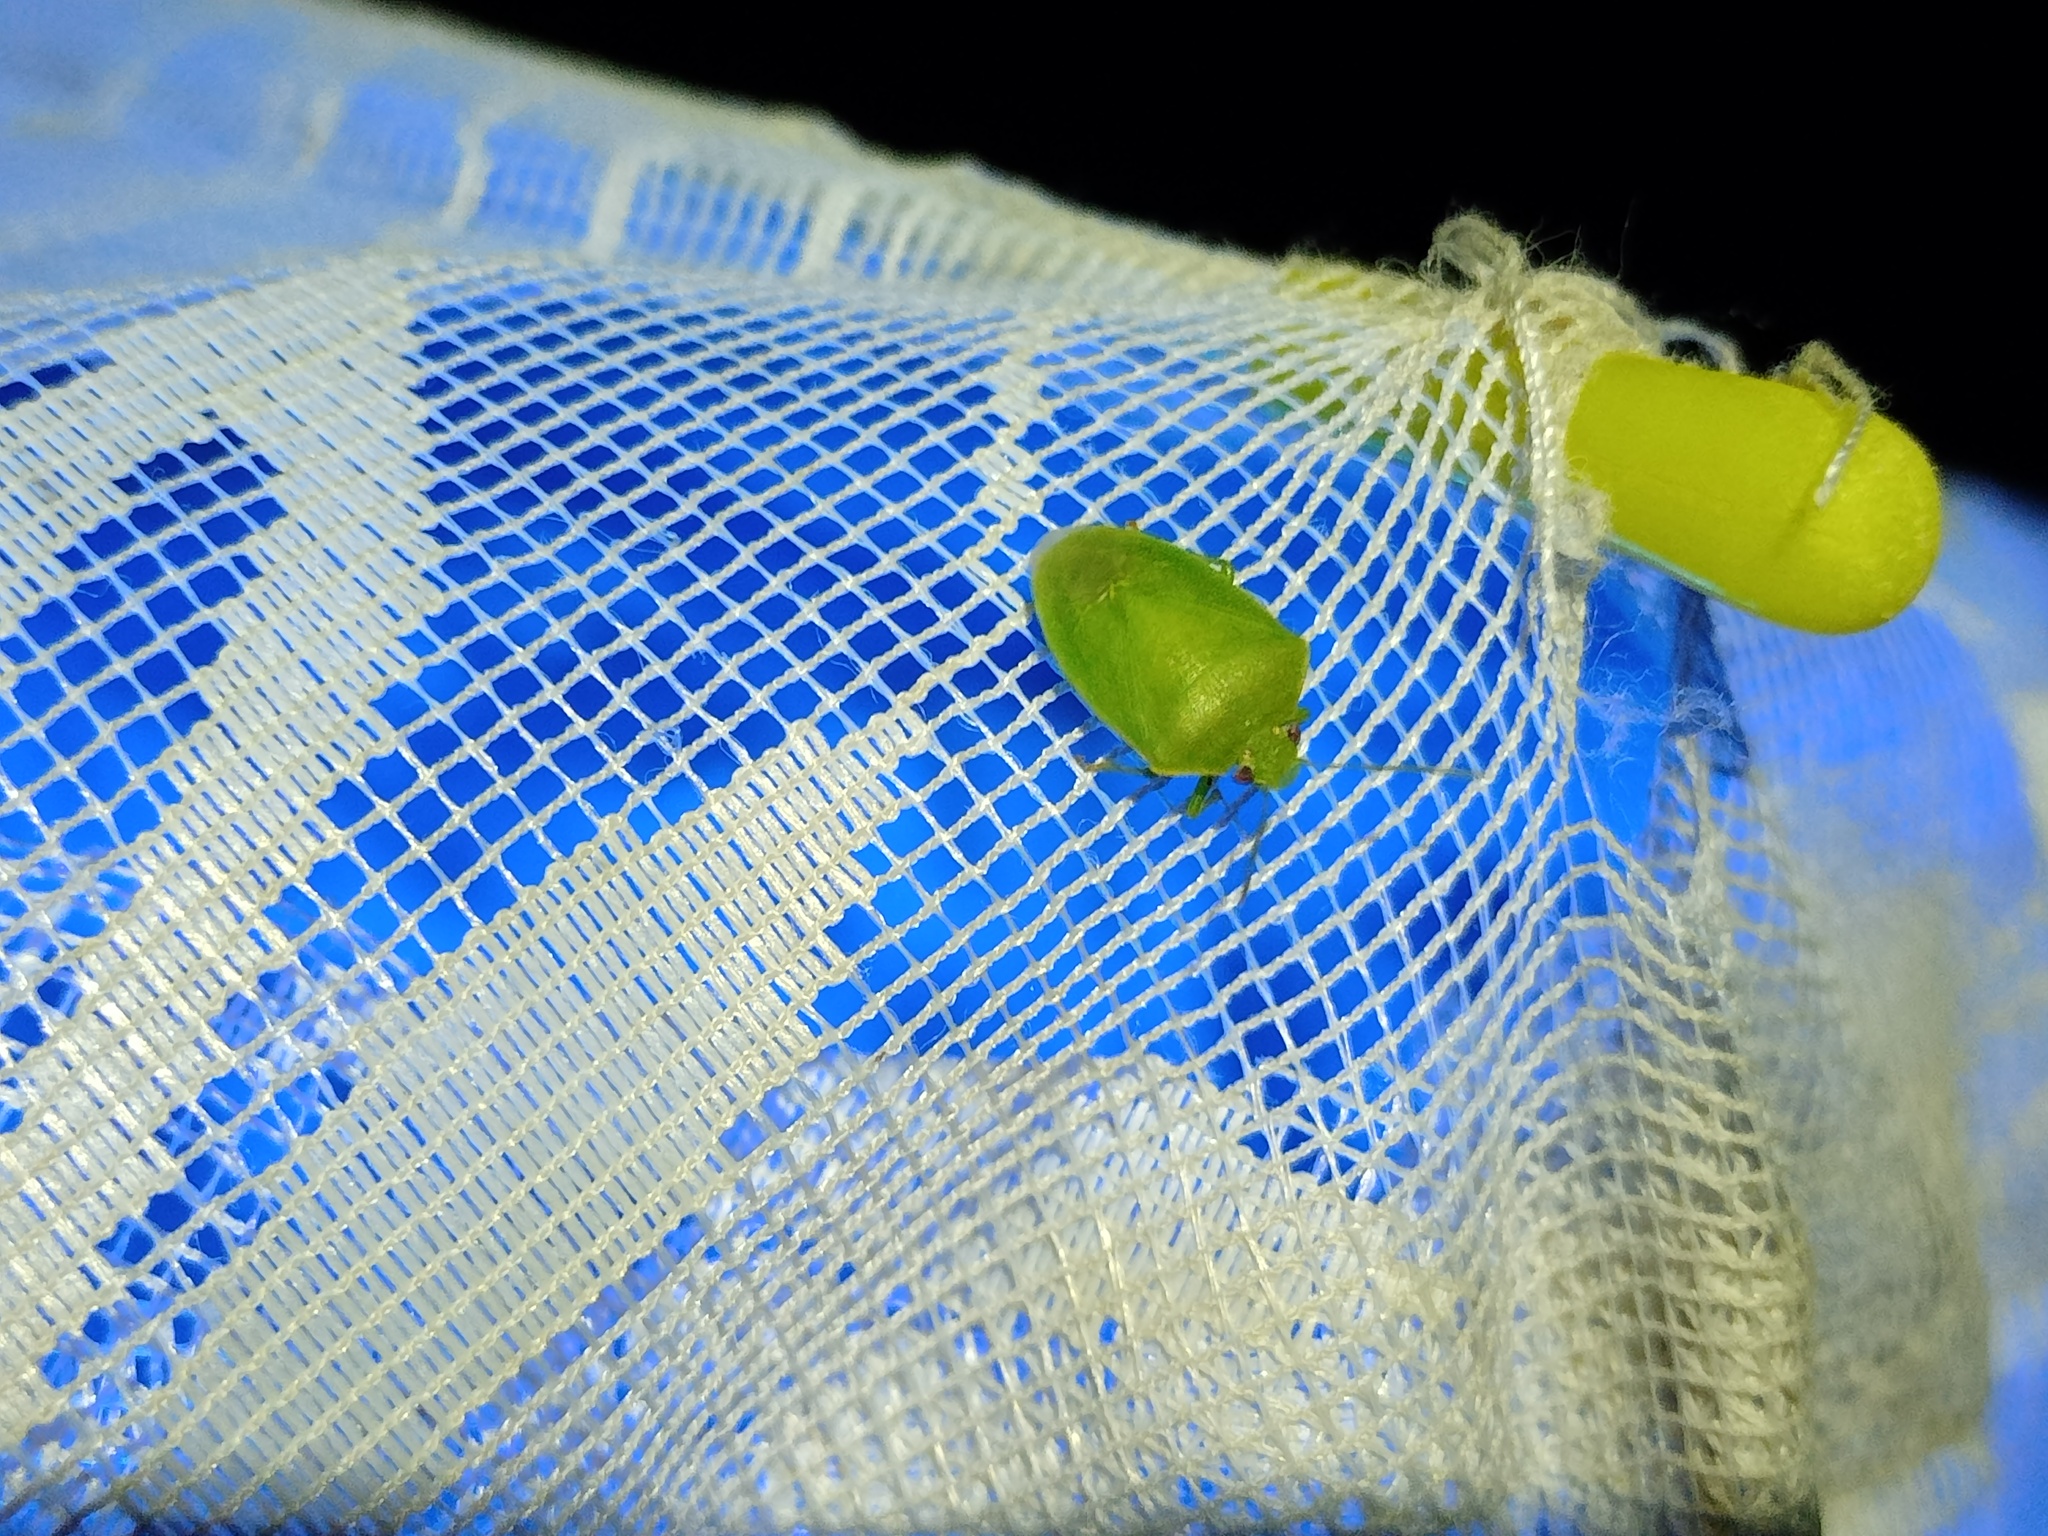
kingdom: Animalia
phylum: Arthropoda
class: Insecta
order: Hemiptera
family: Pentatomidae
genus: Acrosternum
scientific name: Acrosternum millierei
